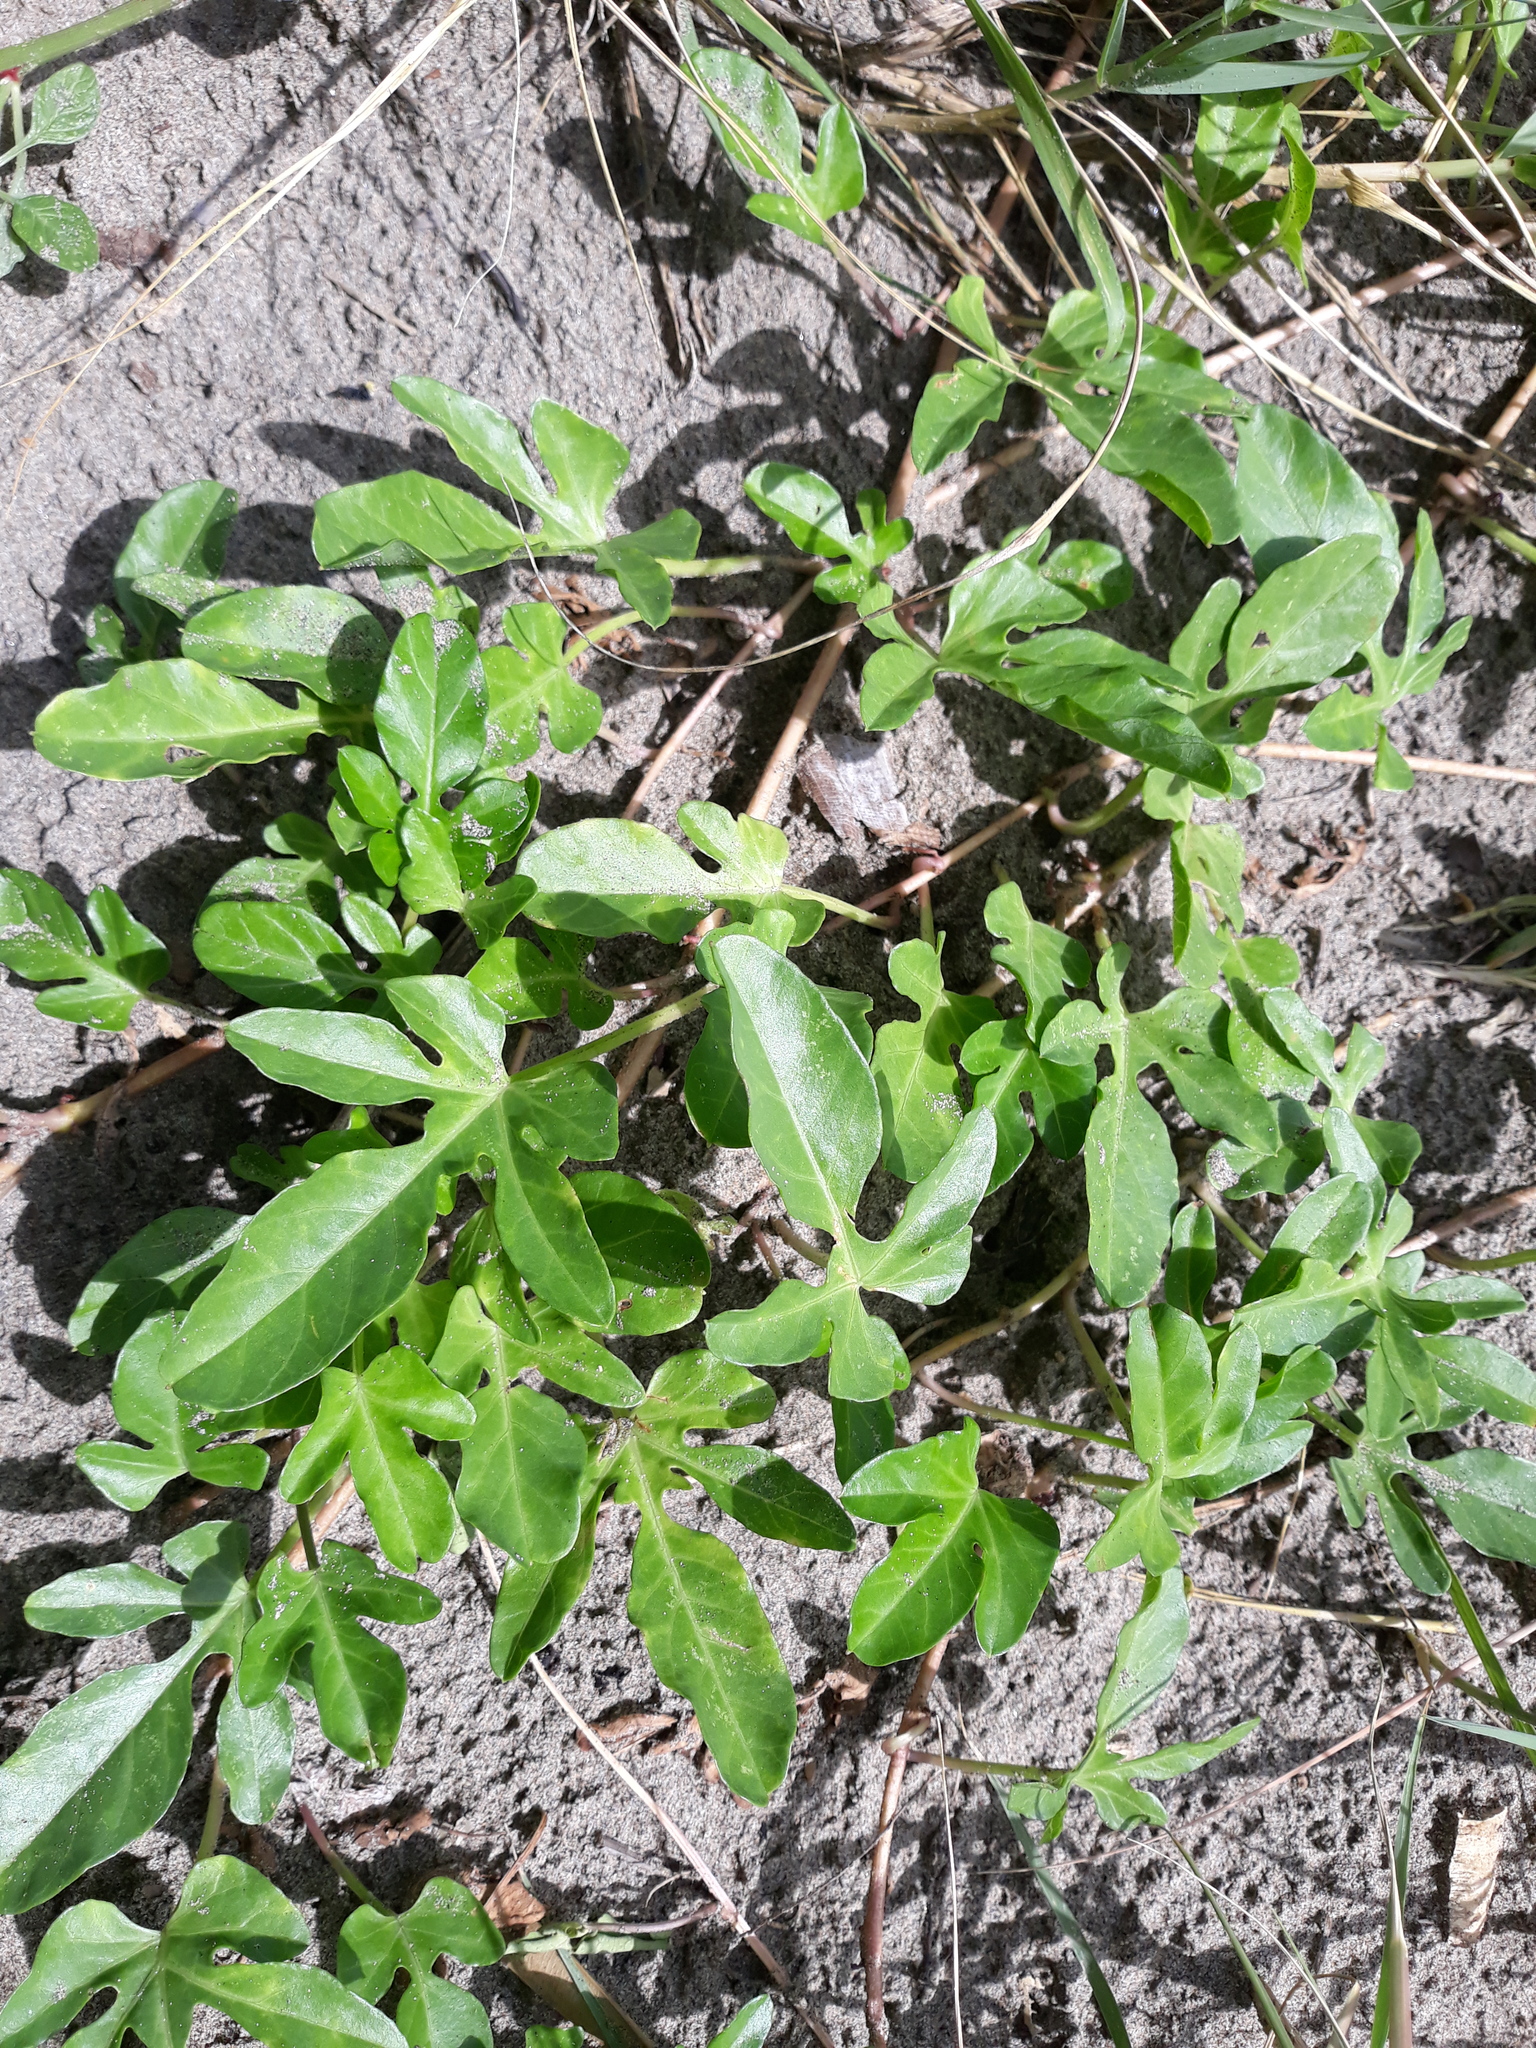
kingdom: Plantae
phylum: Tracheophyta
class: Magnoliopsida
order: Solanales
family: Convolvulaceae
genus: Ipomoea
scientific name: Ipomoea imperati
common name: Fiddle-leaf morning-glory
